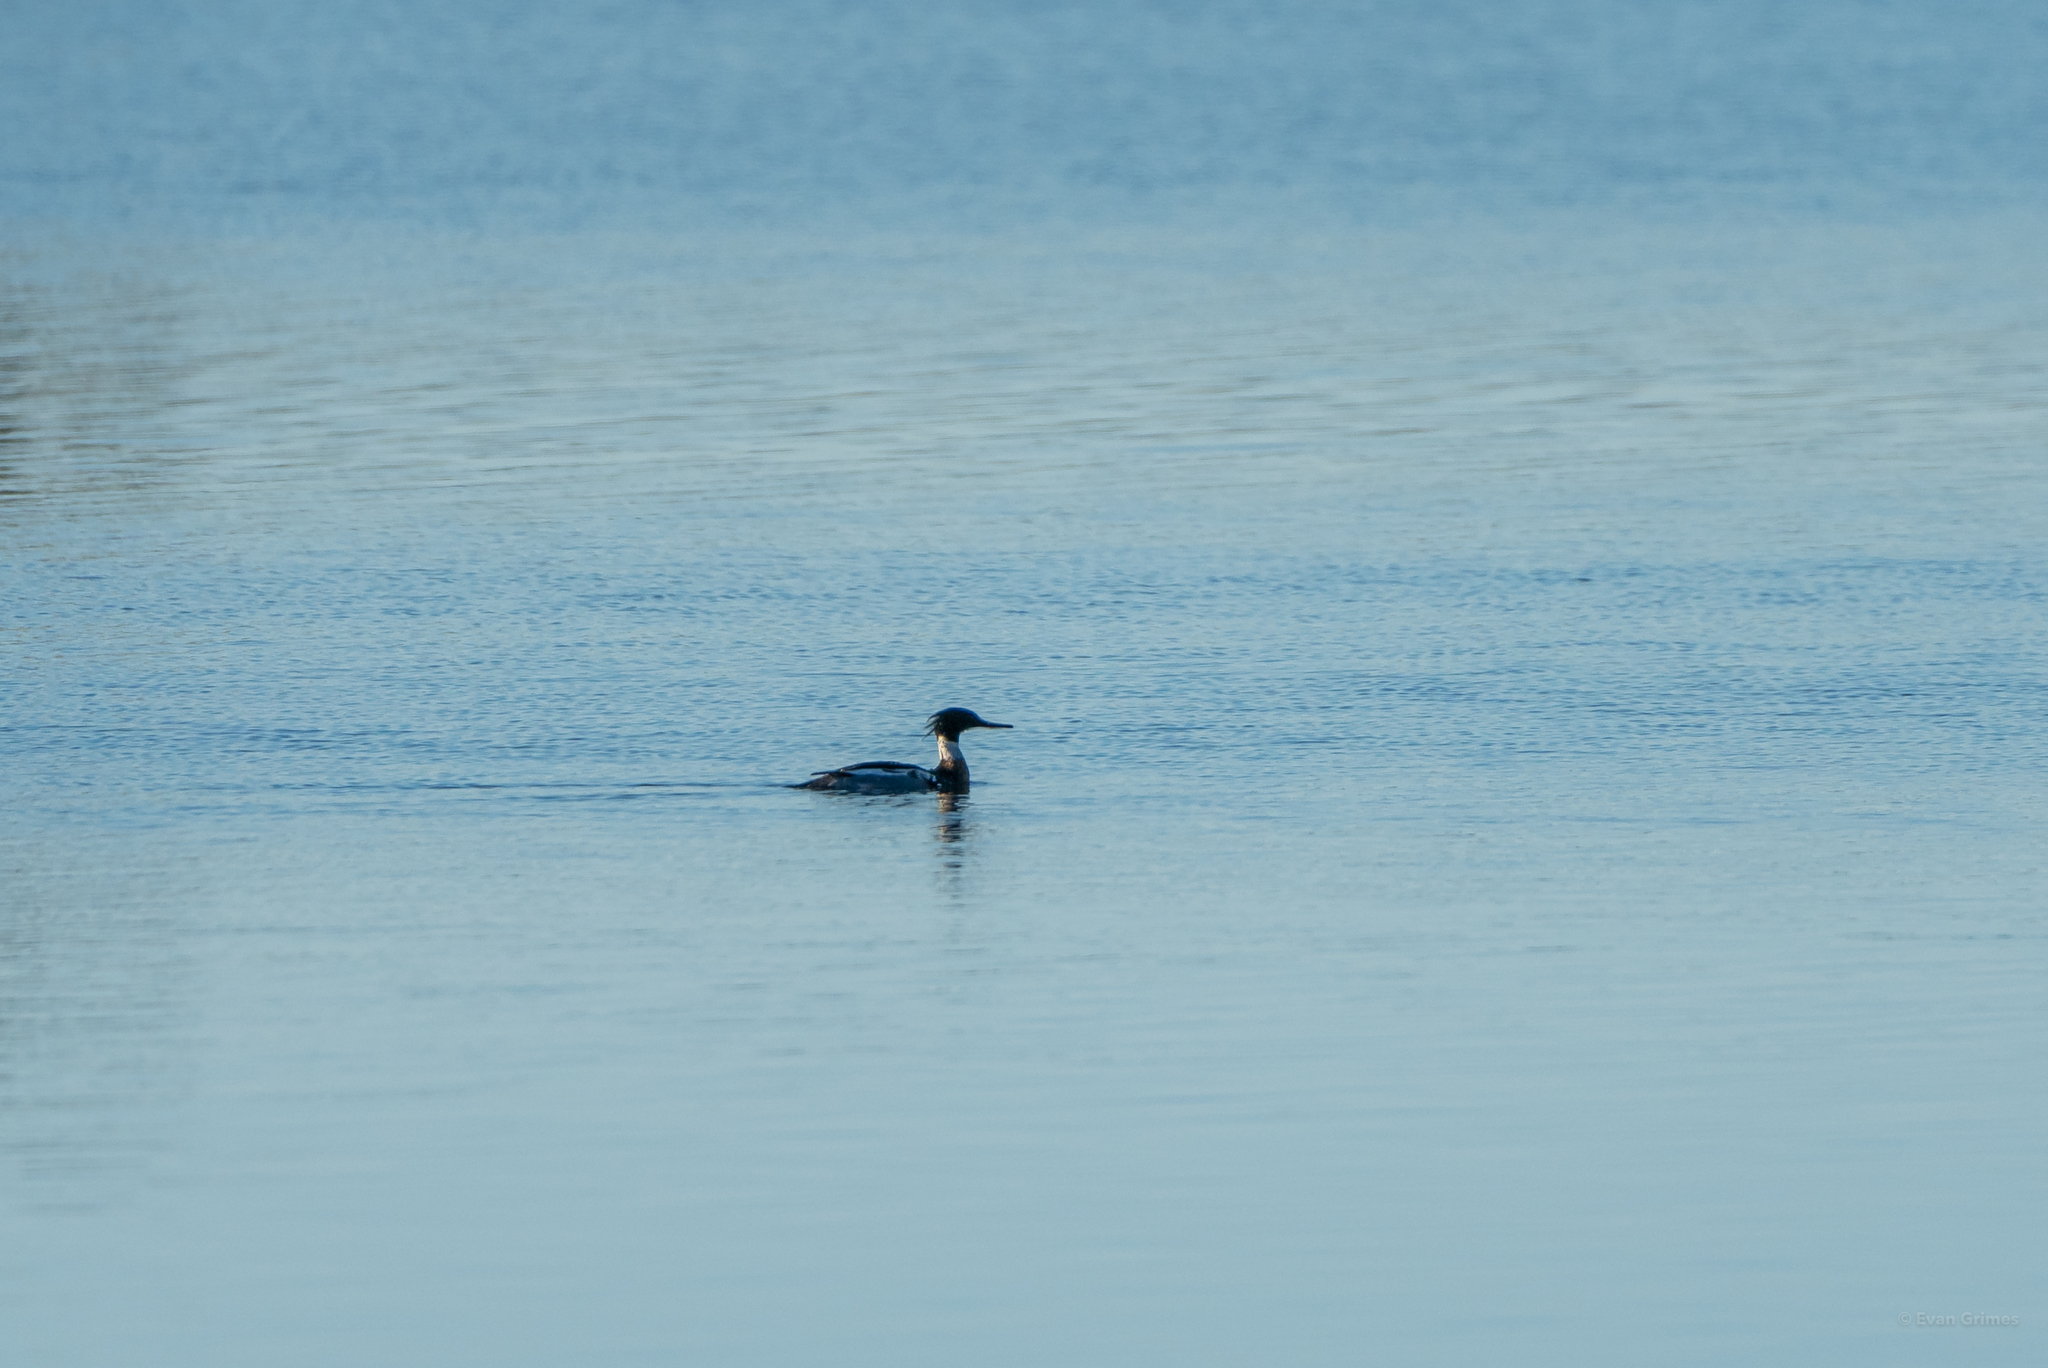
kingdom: Animalia
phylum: Chordata
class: Aves
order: Anseriformes
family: Anatidae
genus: Mergus
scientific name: Mergus serrator
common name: Red-breasted merganser
